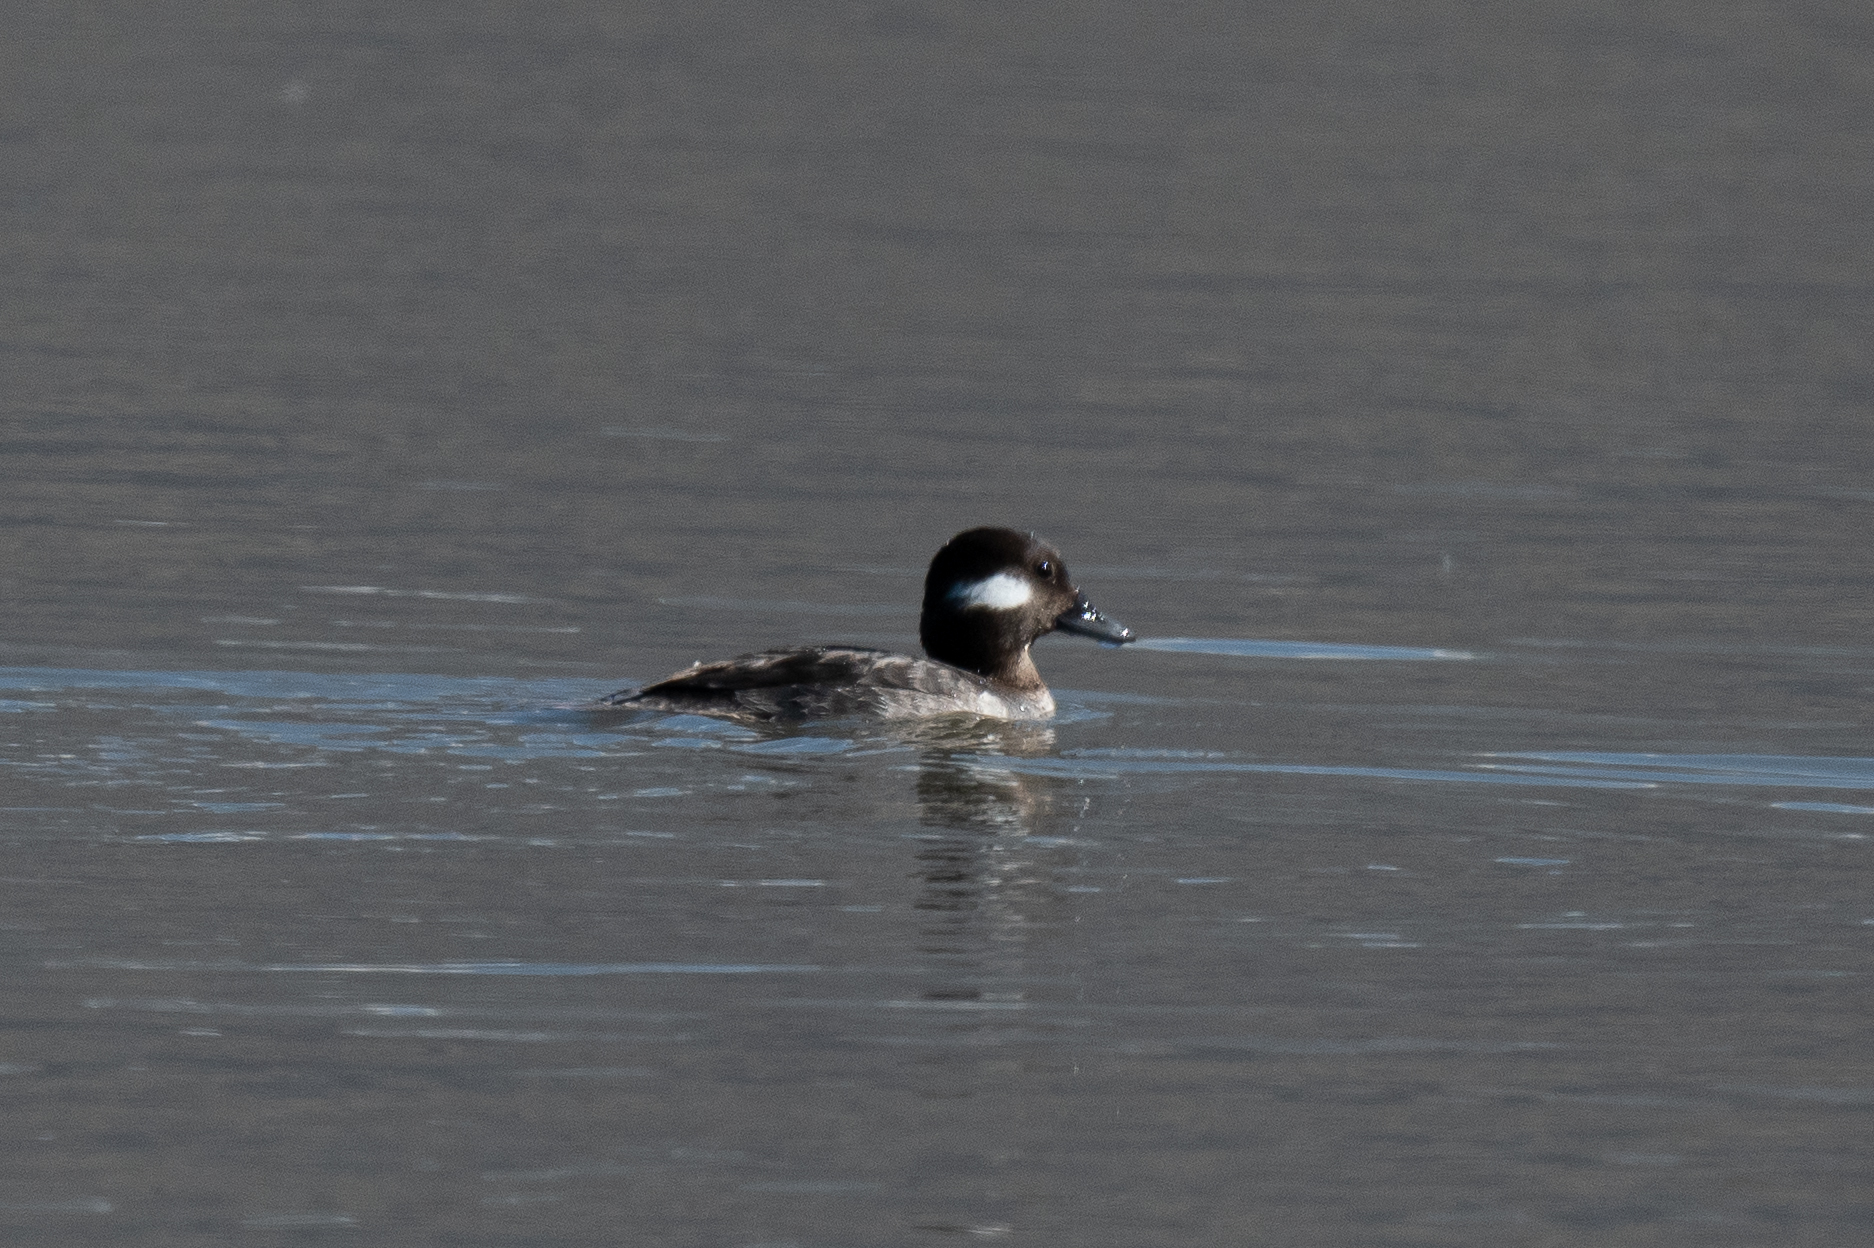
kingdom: Animalia
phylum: Chordata
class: Aves
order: Anseriformes
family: Anatidae
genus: Bucephala
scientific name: Bucephala albeola
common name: Bufflehead
